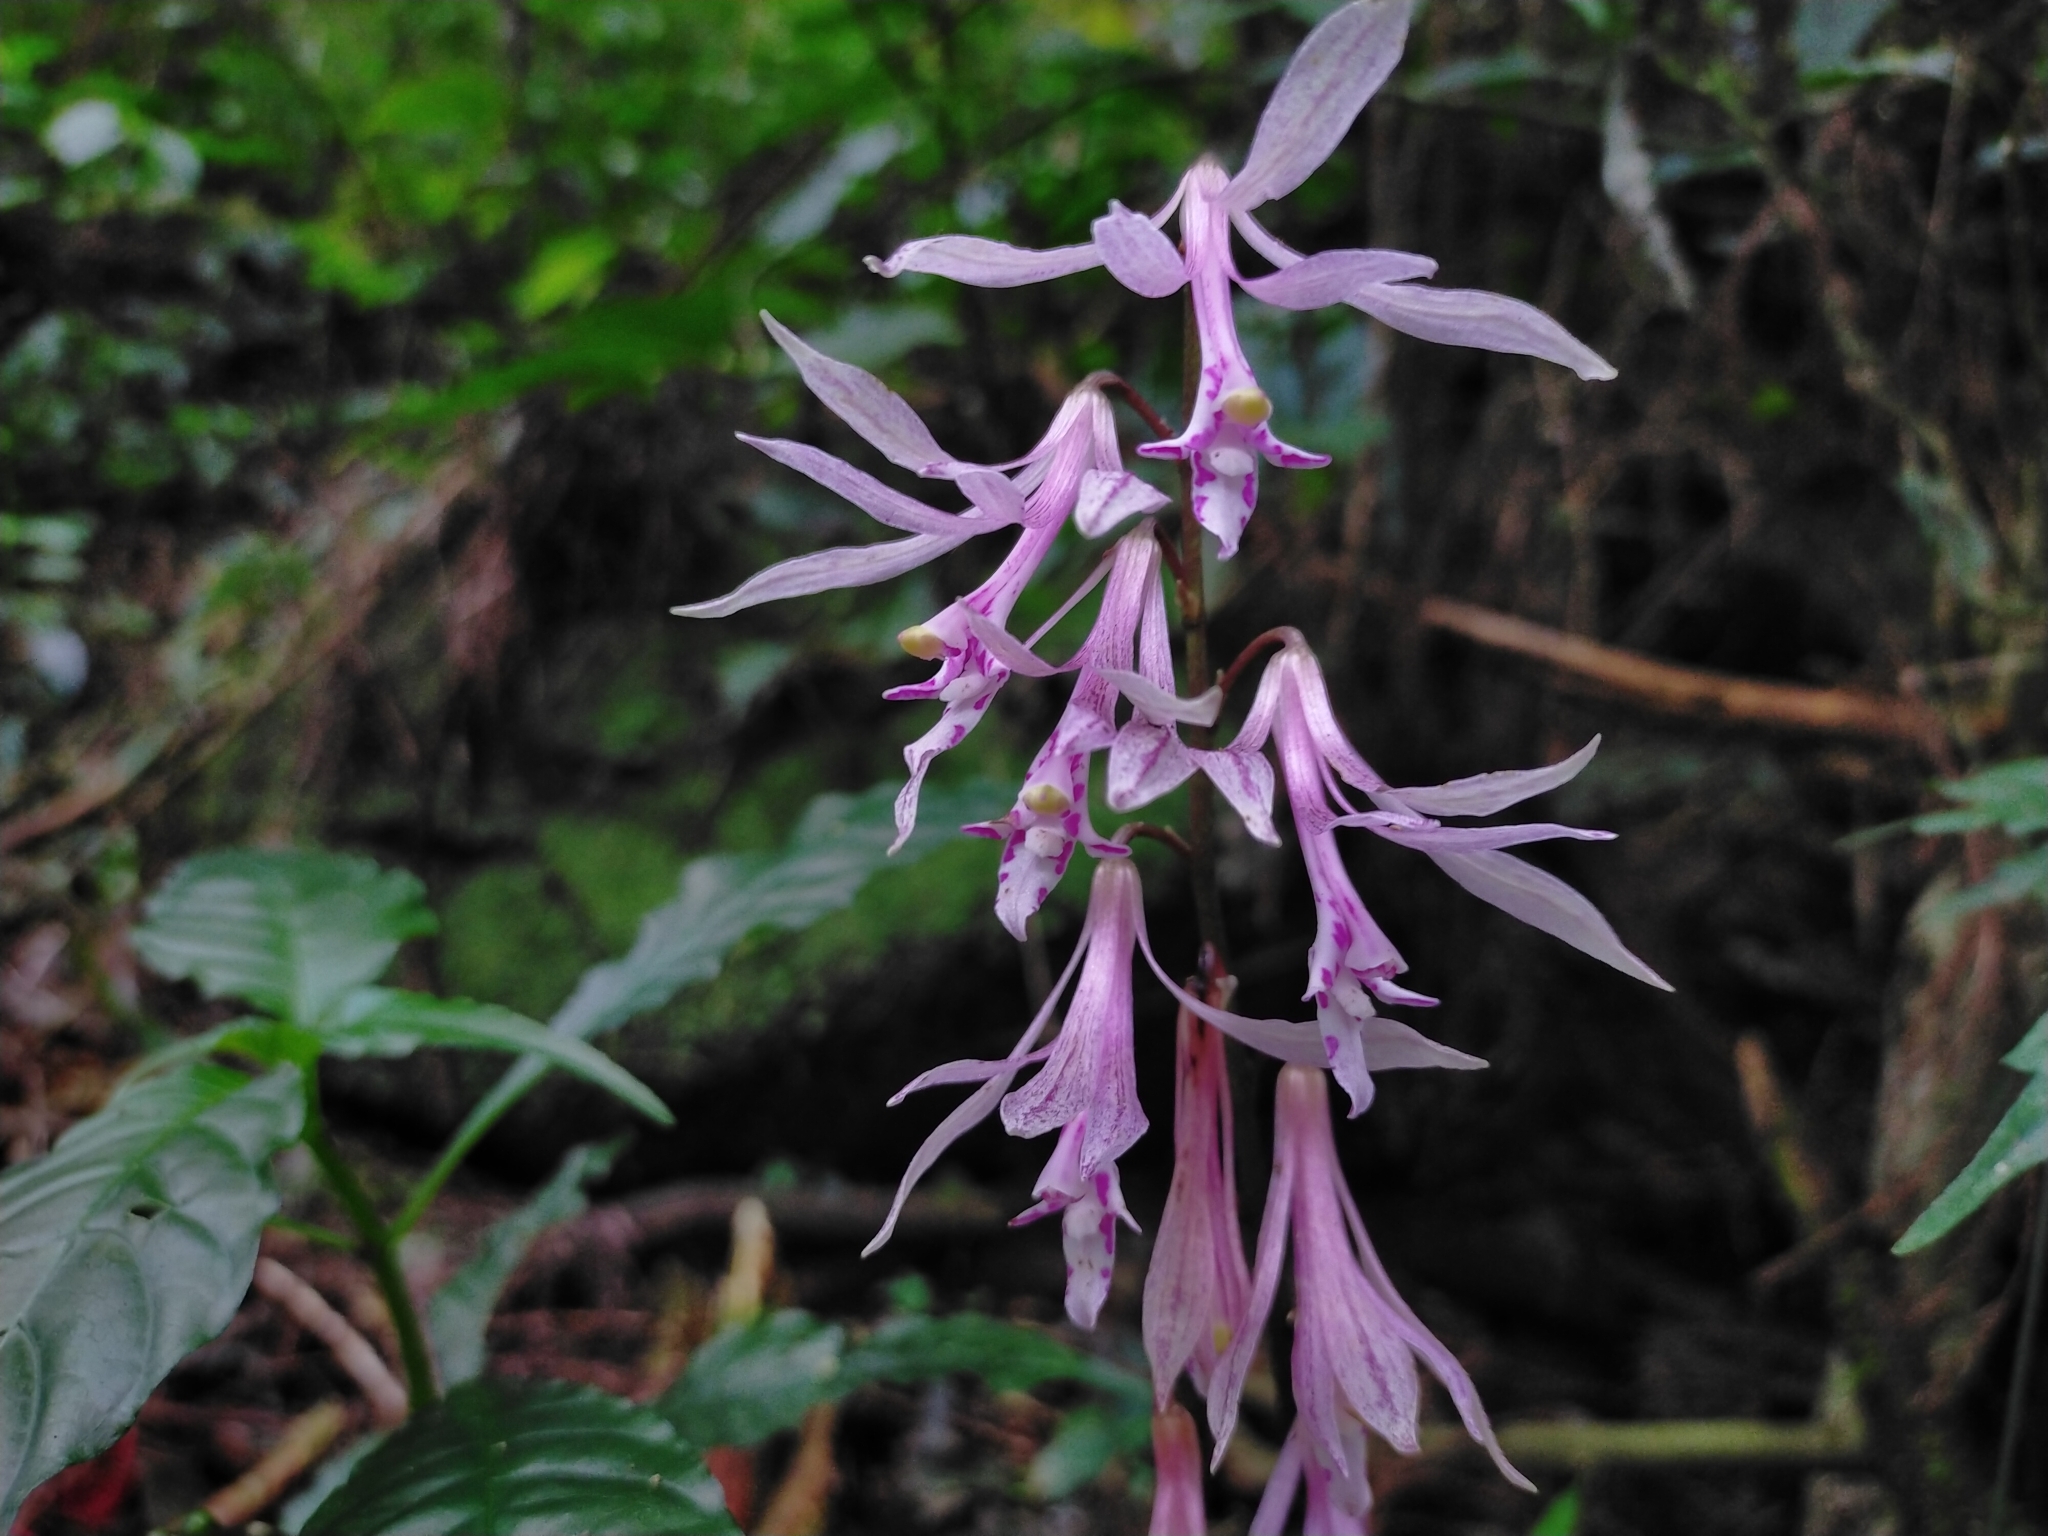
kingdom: Plantae
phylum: Tracheophyta
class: Liliopsida
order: Asparagales
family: Orchidaceae
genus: Cremastra
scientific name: Cremastra appendiculata
